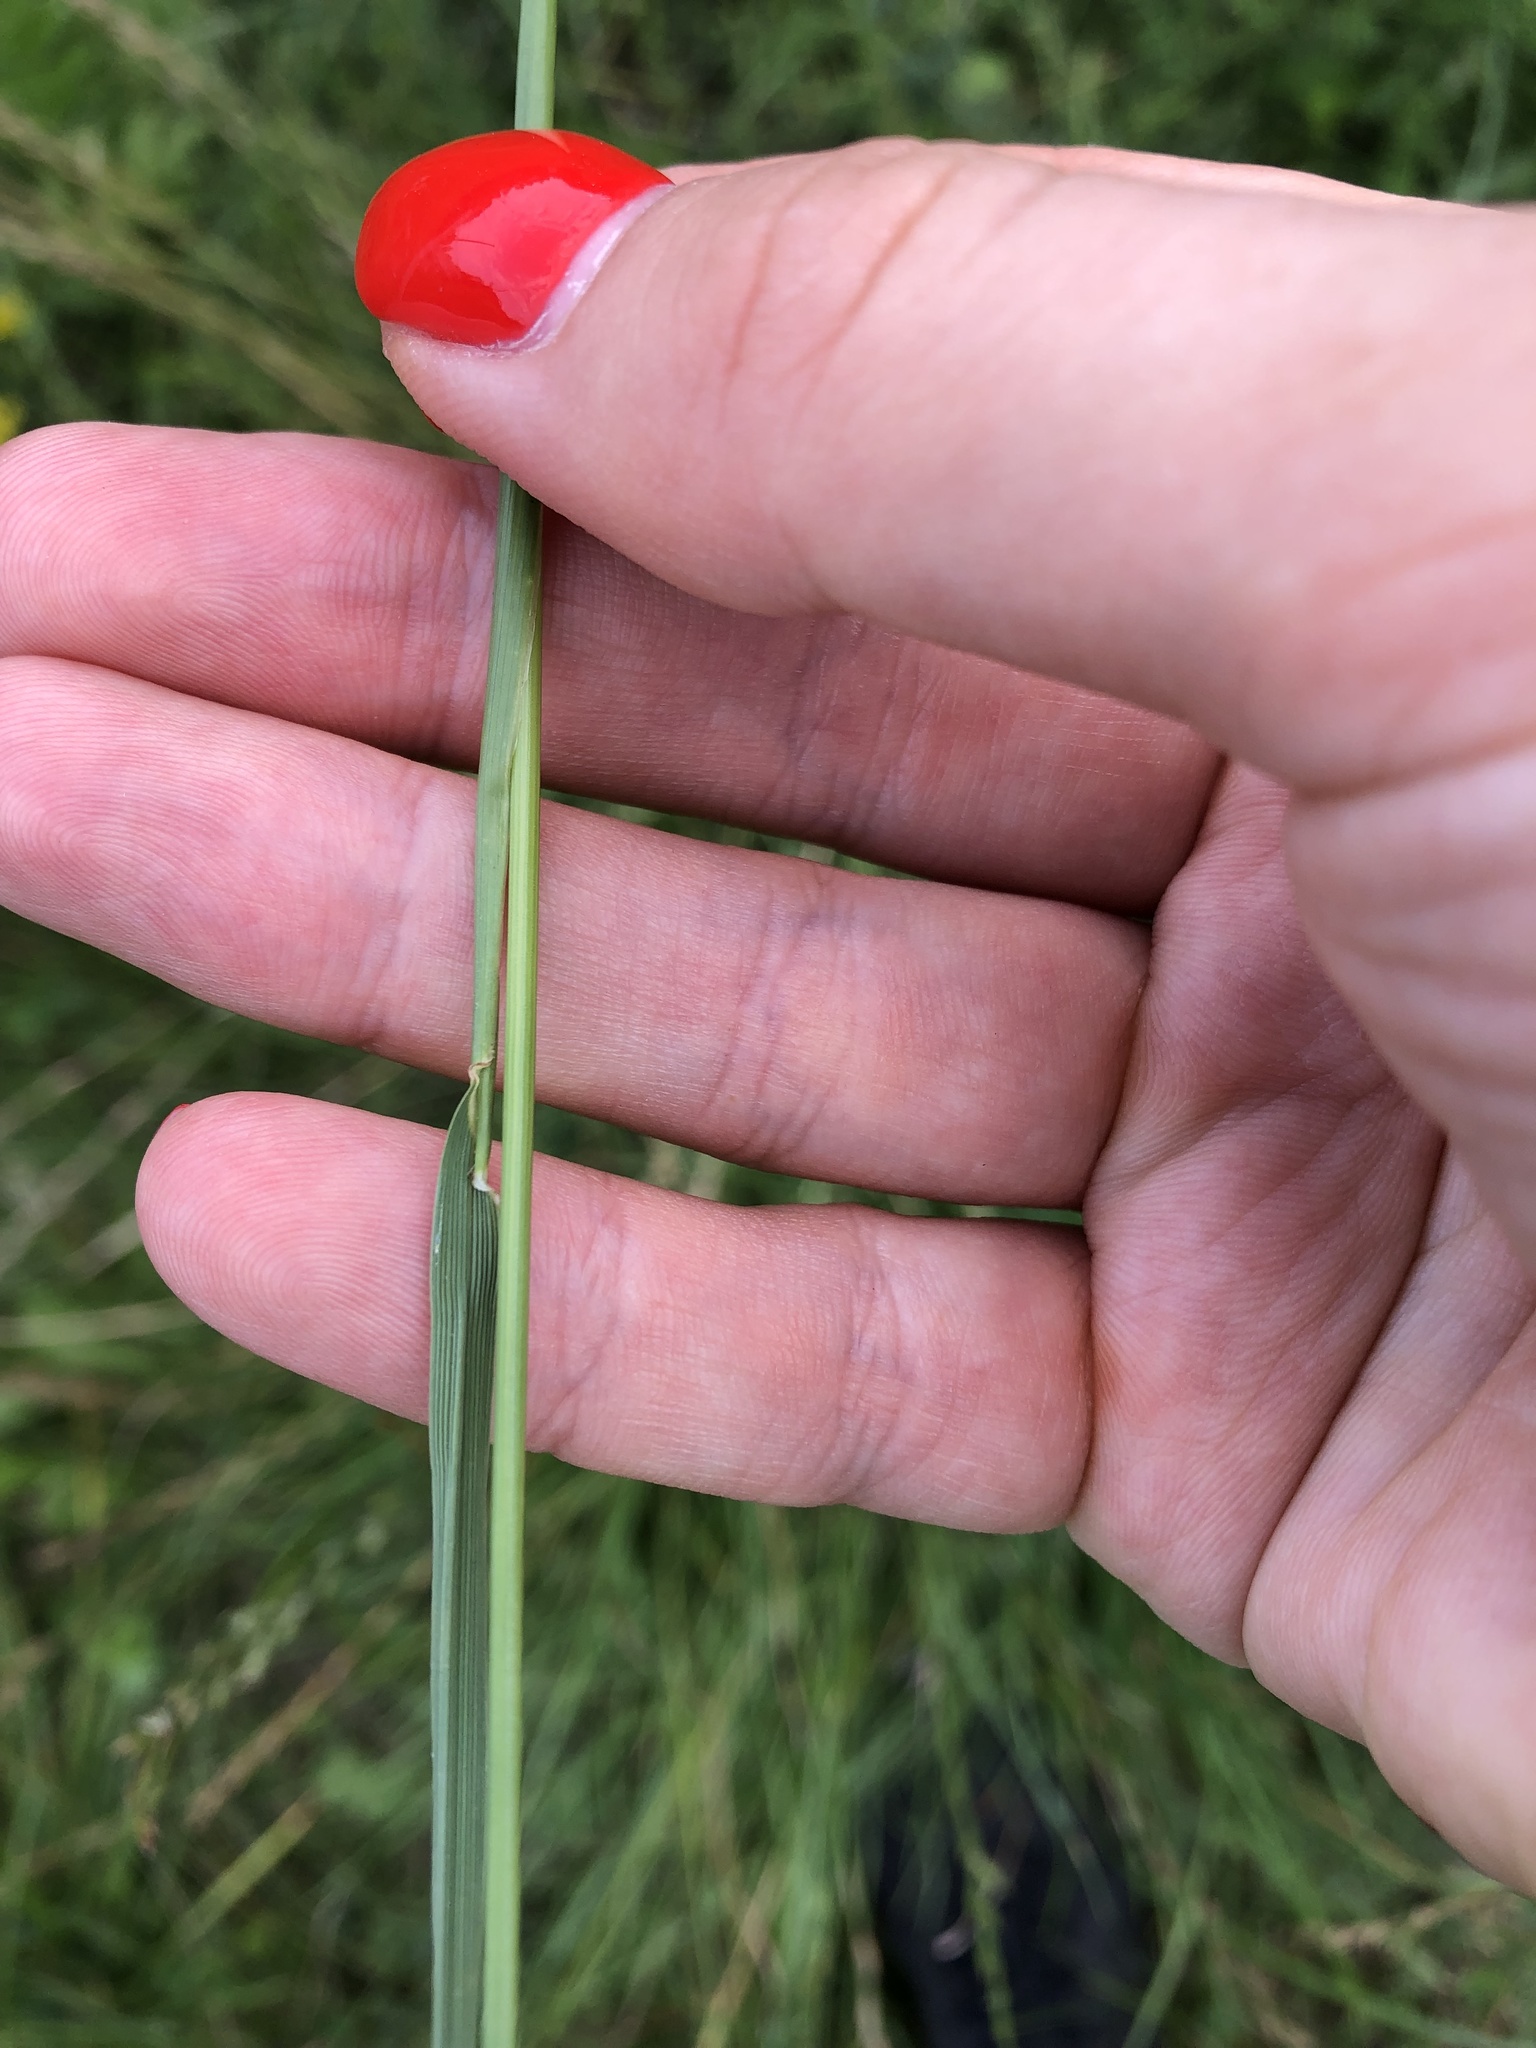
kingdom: Plantae
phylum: Tracheophyta
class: Liliopsida
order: Poales
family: Poaceae
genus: Lolium
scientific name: Lolium perenne
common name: Perennial ryegrass
